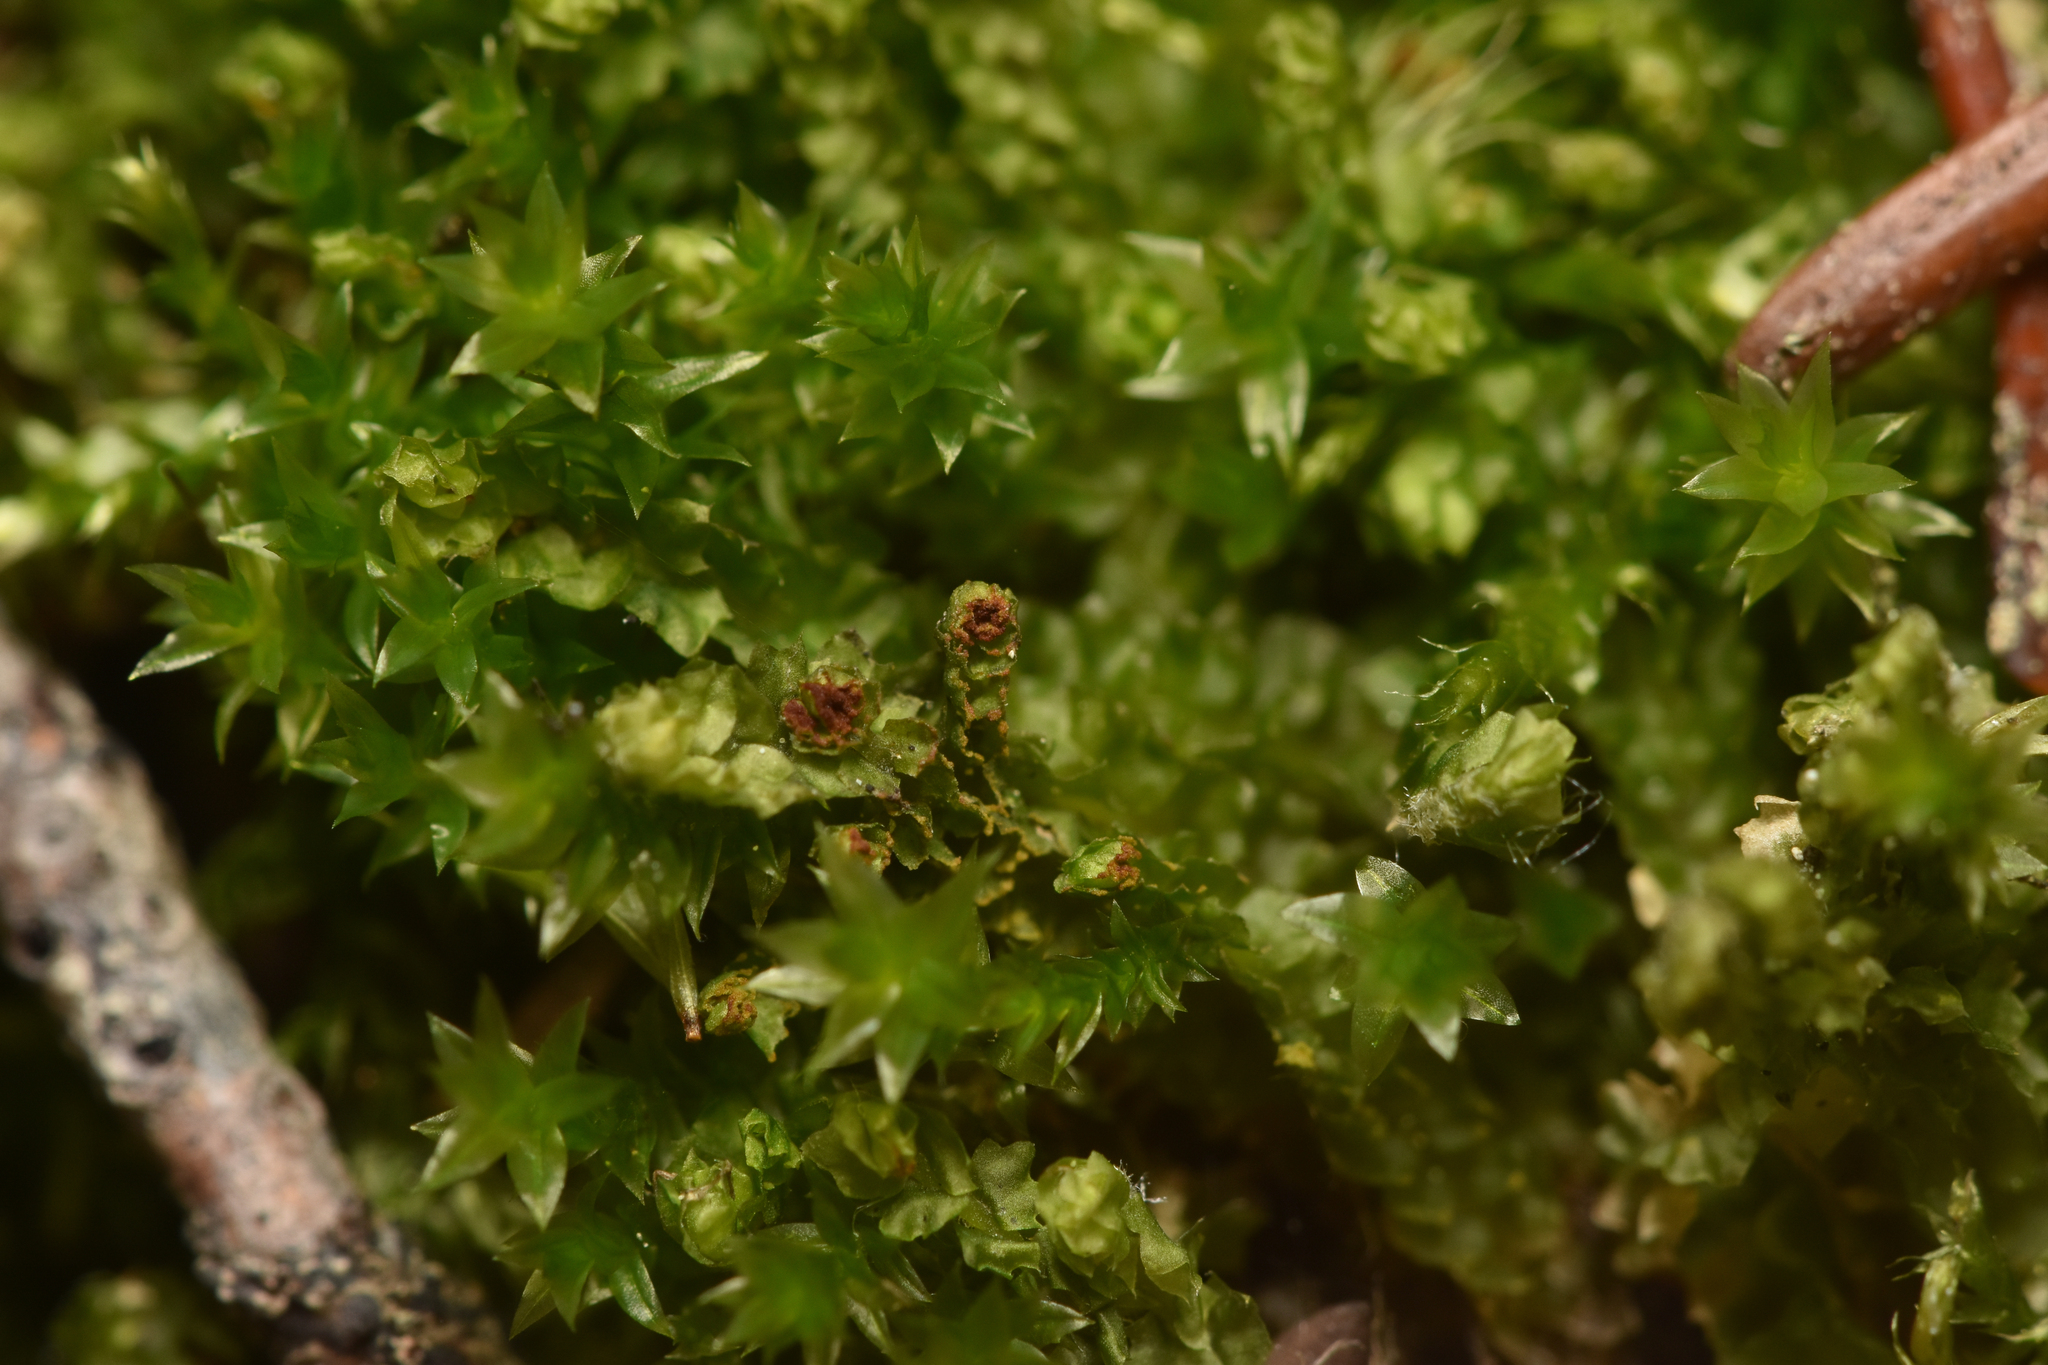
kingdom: Plantae
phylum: Marchantiophyta
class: Jungermanniopsida
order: Jungermanniales
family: Anastrophyllaceae
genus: Barbilophozia
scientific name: Barbilophozia hatcheri
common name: Hatcher s pawwort
